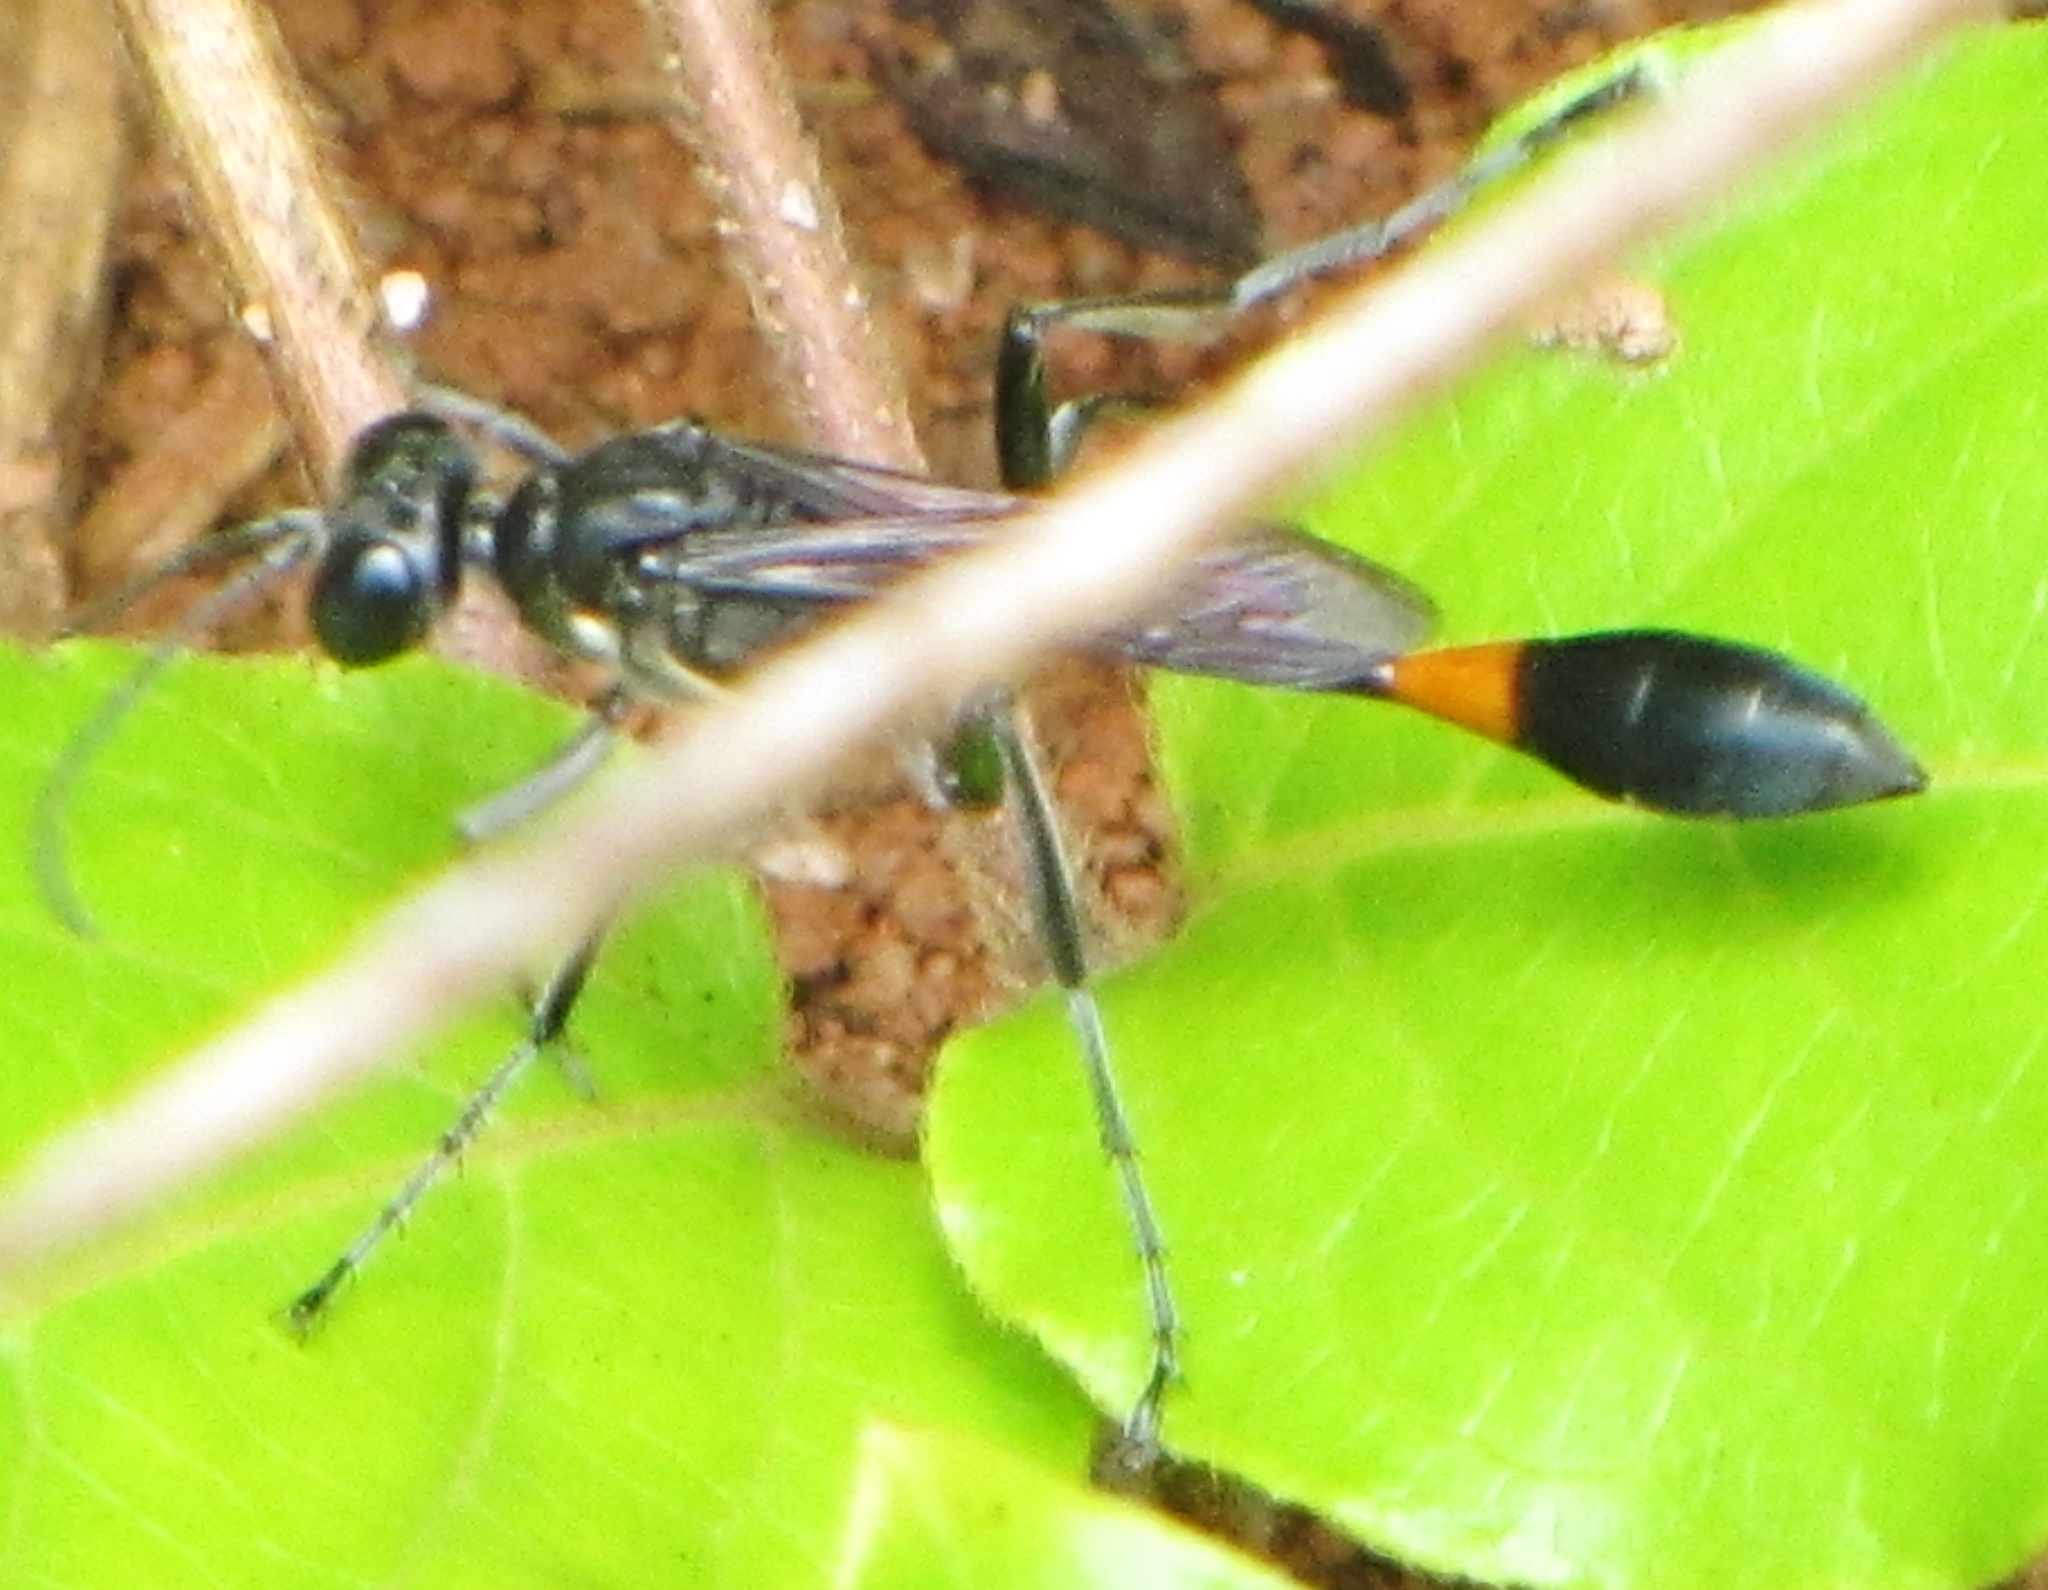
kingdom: Animalia
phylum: Arthropoda
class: Insecta
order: Hymenoptera
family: Sphecidae
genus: Ammophila
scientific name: Ammophila procera
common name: Common thread-waisted wasp
